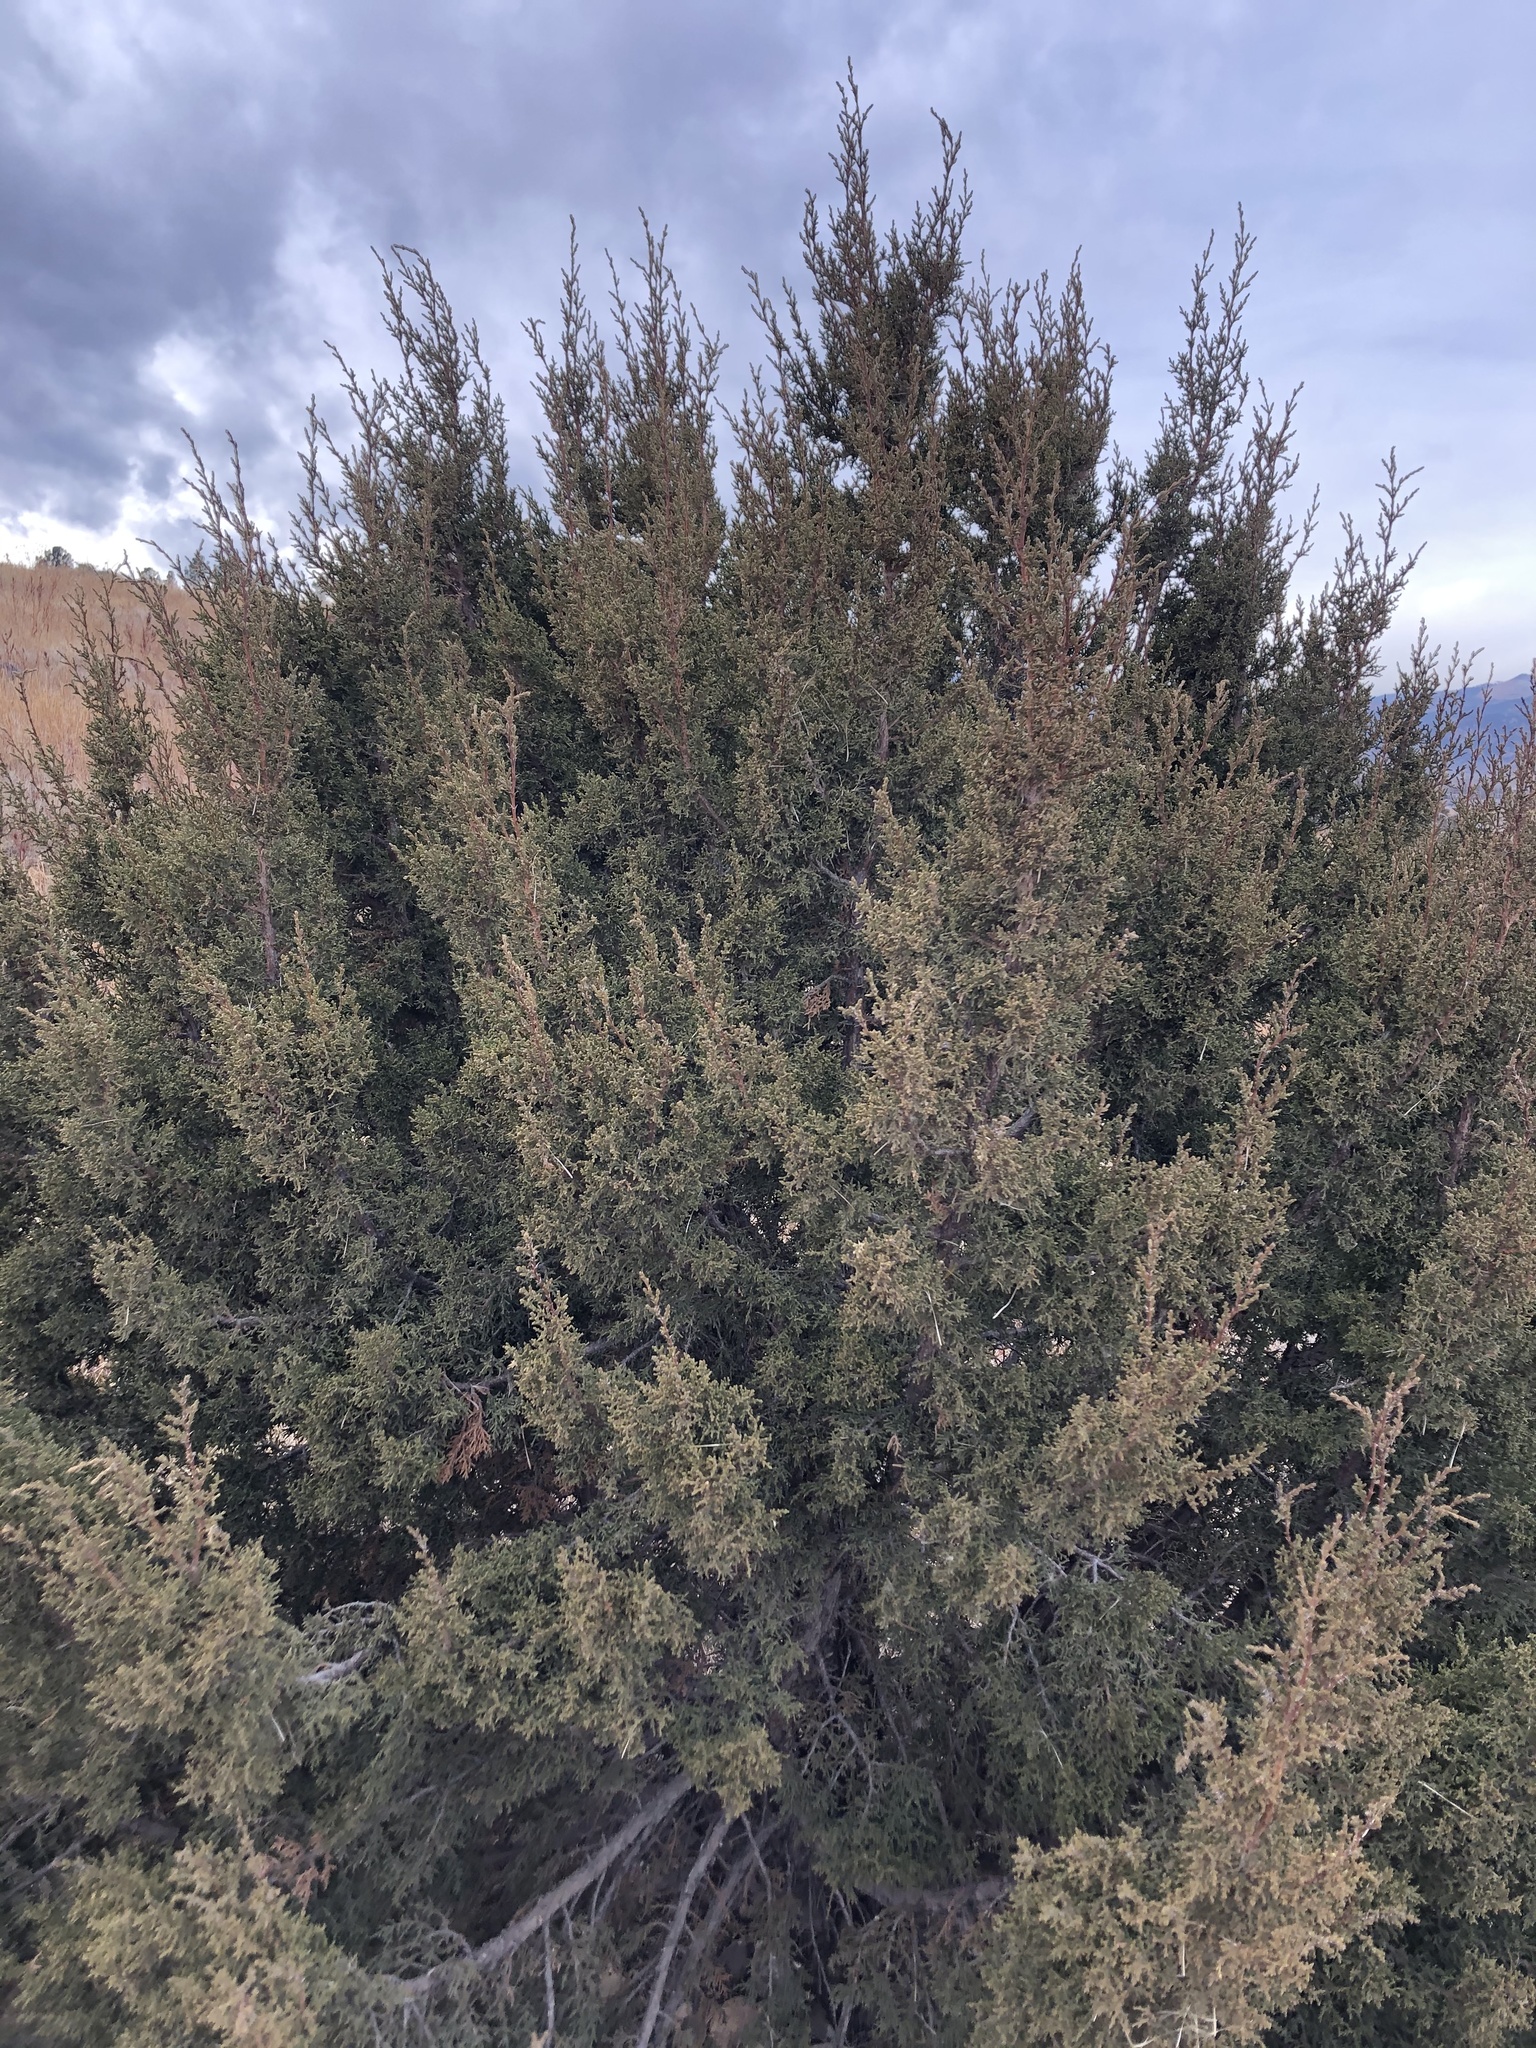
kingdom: Plantae
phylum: Tracheophyta
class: Pinopsida
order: Pinales
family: Cupressaceae
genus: Juniperus
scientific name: Juniperus scopulorum
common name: Rocky mountain juniper
